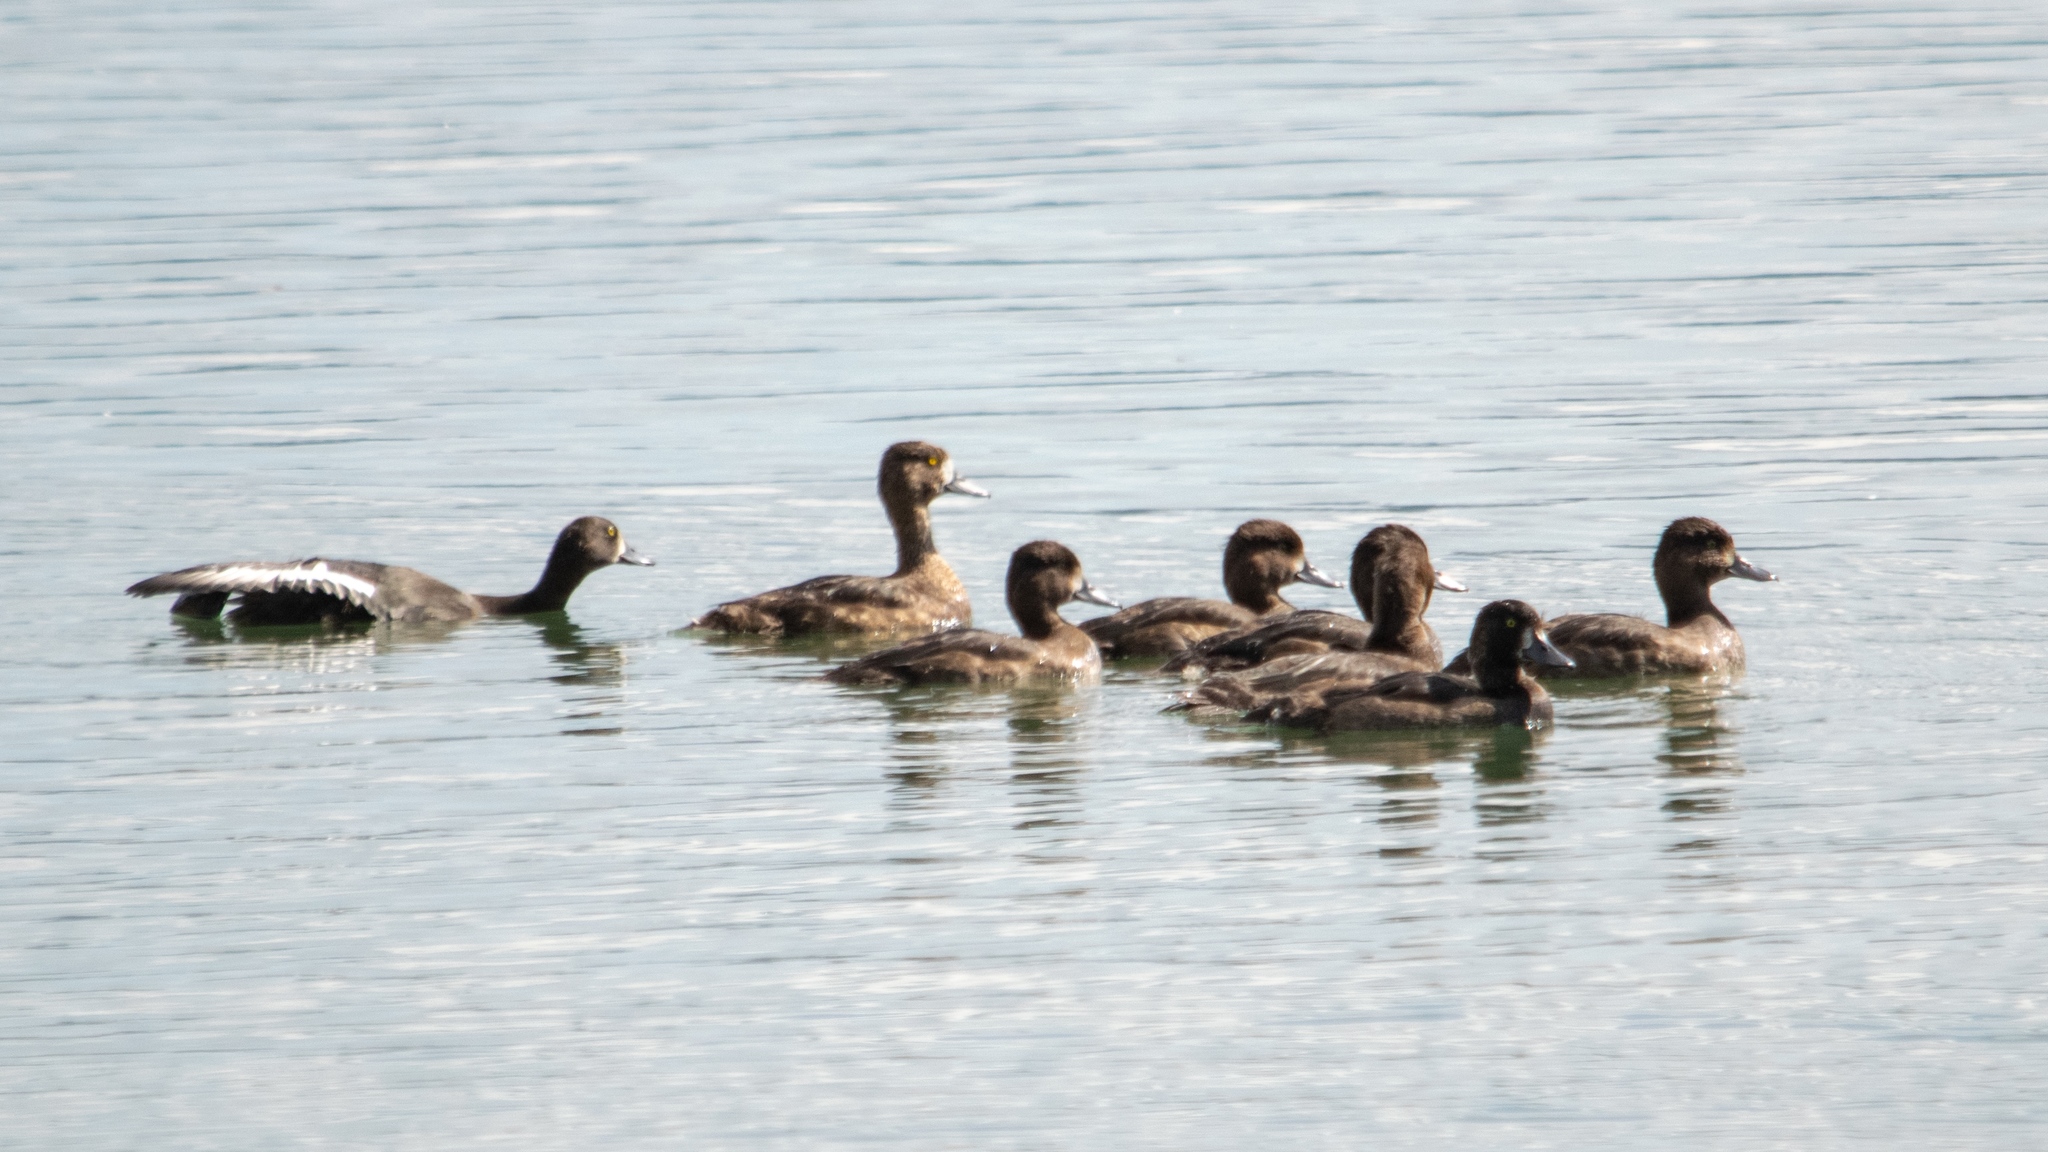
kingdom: Animalia
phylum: Chordata
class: Aves
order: Anseriformes
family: Anatidae
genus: Aythya
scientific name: Aythya fuligula
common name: Tufted duck
